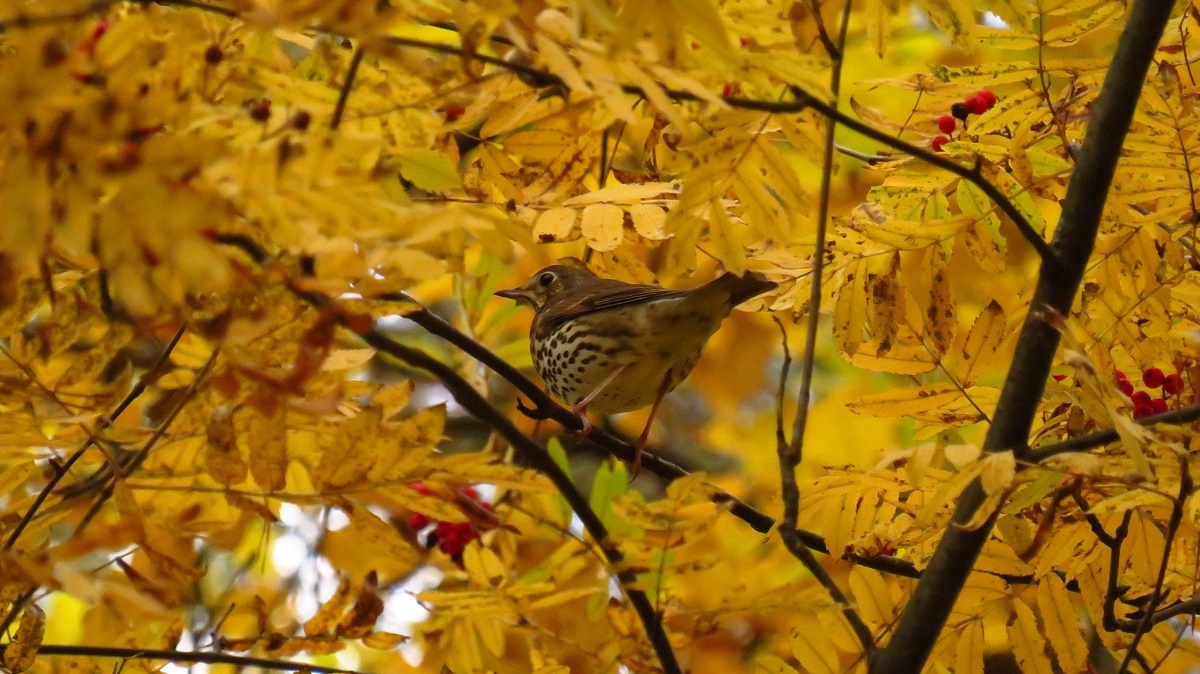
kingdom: Animalia
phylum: Chordata
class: Aves
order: Passeriformes
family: Turdidae
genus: Turdus
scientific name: Turdus philomelos
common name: Song thrush
